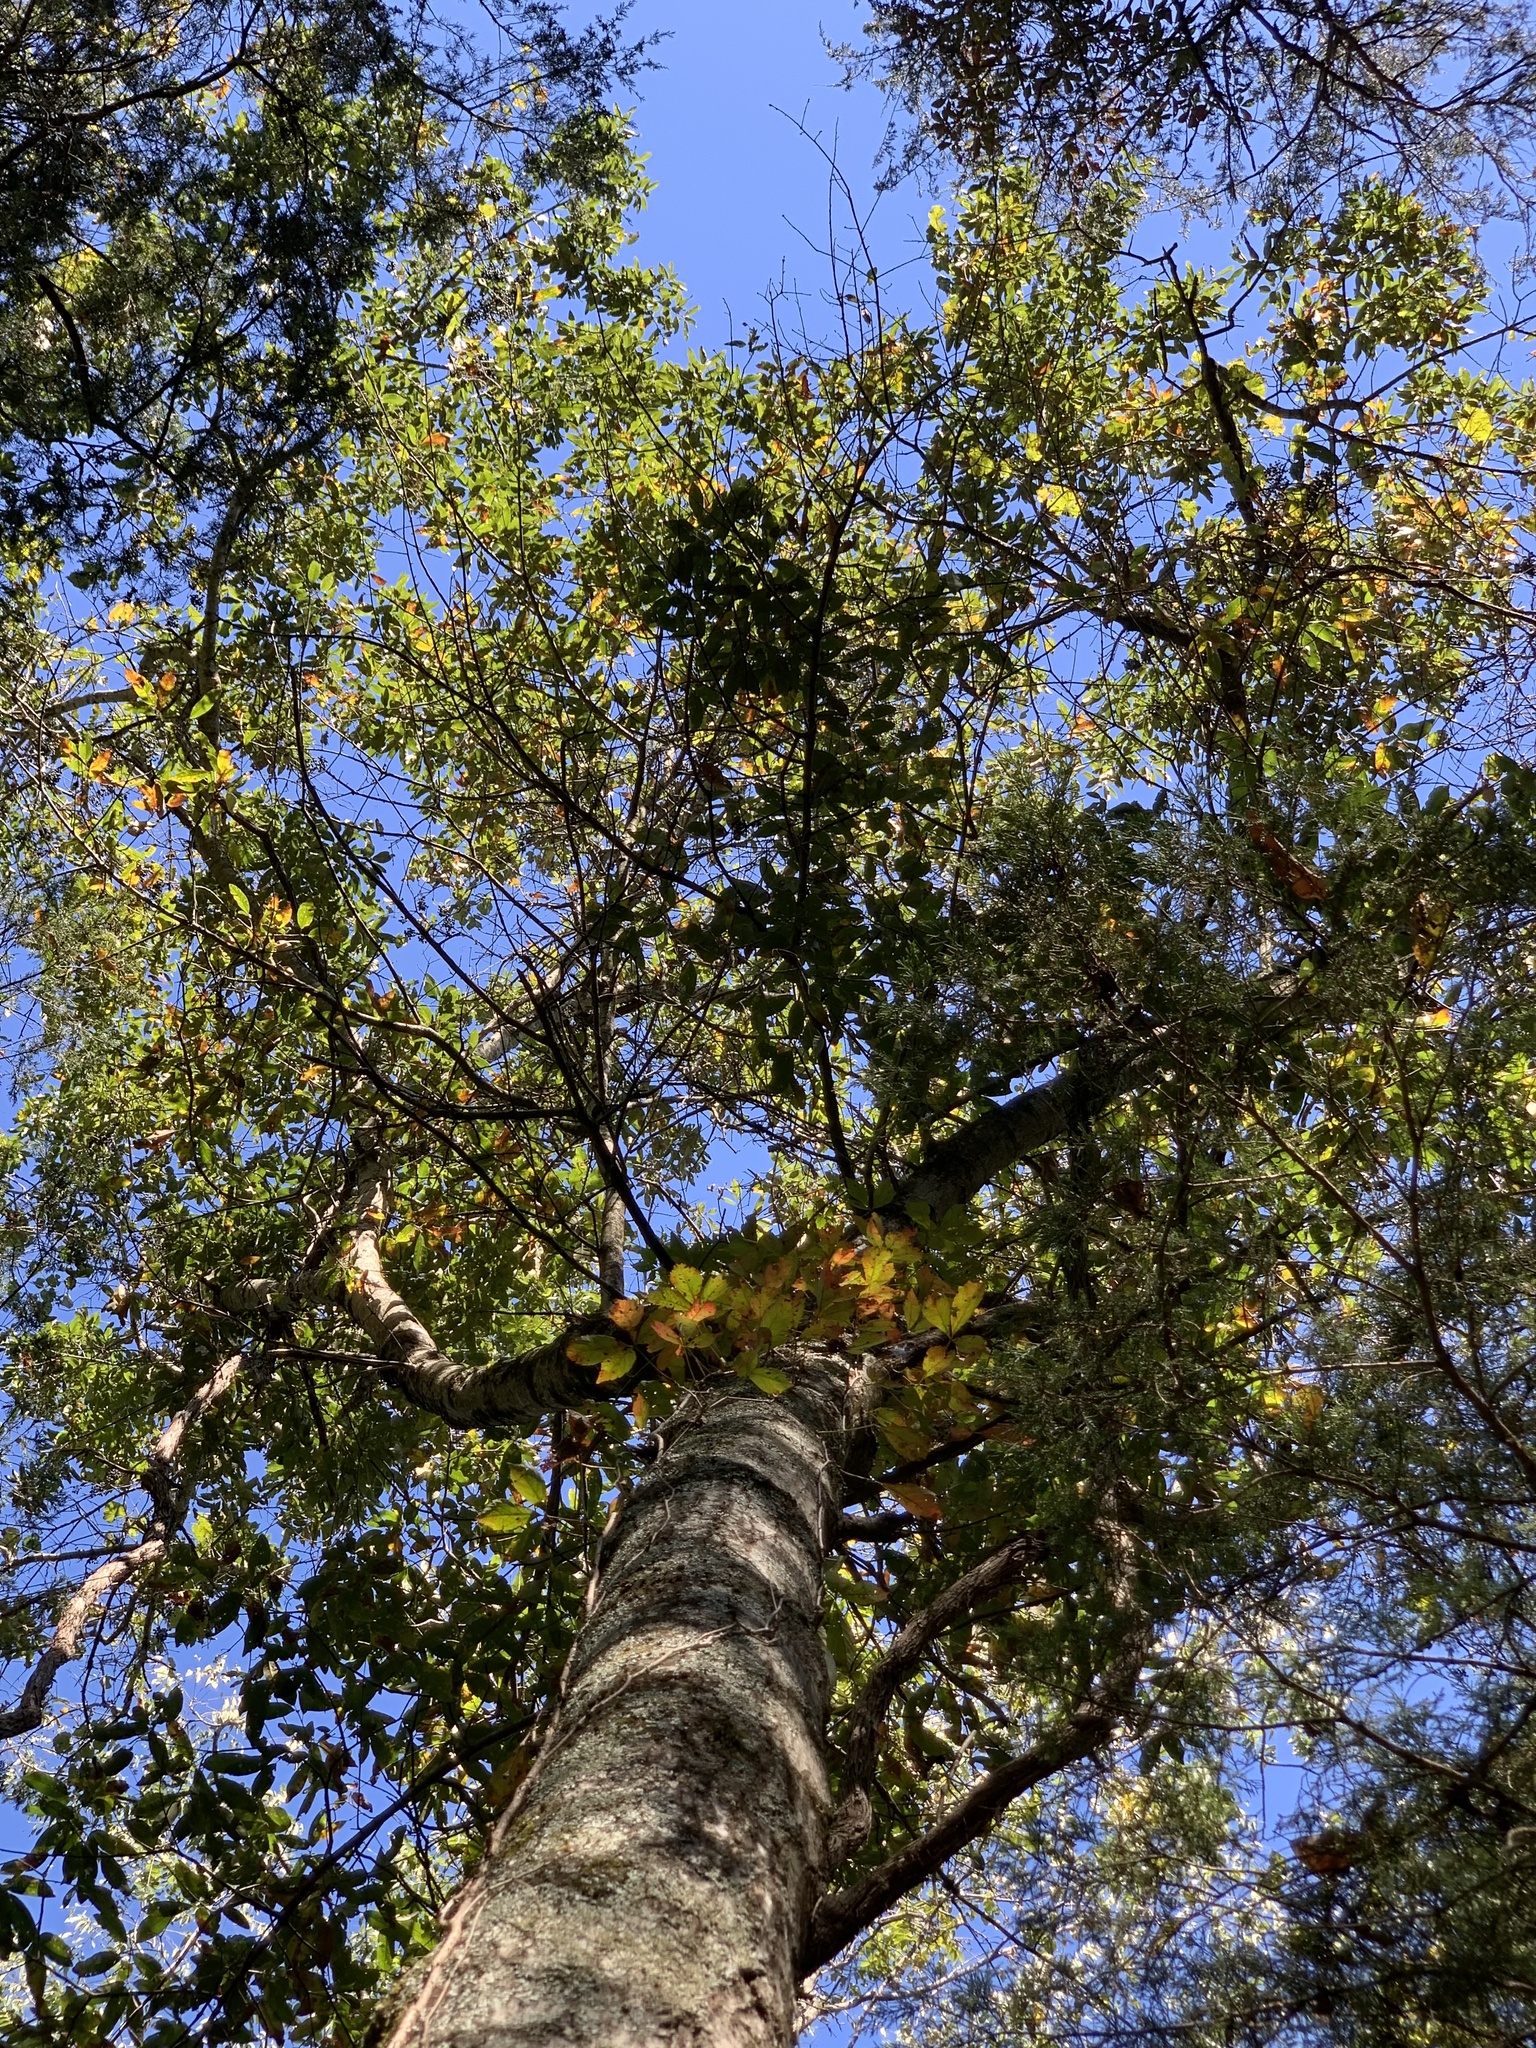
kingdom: Plantae
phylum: Tracheophyta
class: Magnoliopsida
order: Fagales
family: Fagaceae
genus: Quercus
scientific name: Quercus imbricaria
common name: Shingle oak
